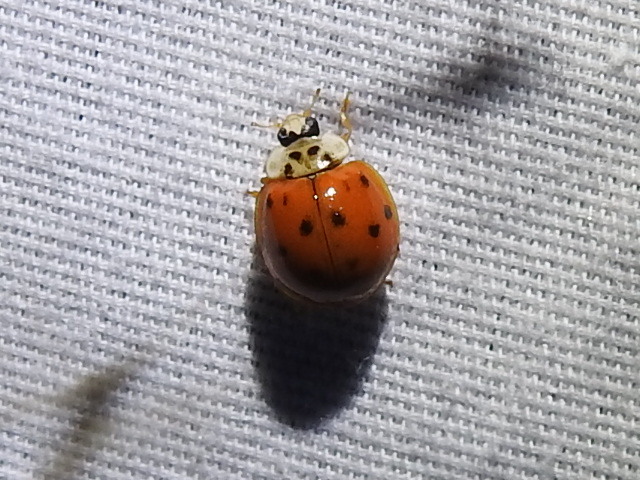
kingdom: Animalia
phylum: Arthropoda
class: Insecta
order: Coleoptera
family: Coccinellidae
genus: Harmonia
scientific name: Harmonia axyridis
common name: Harlequin ladybird
